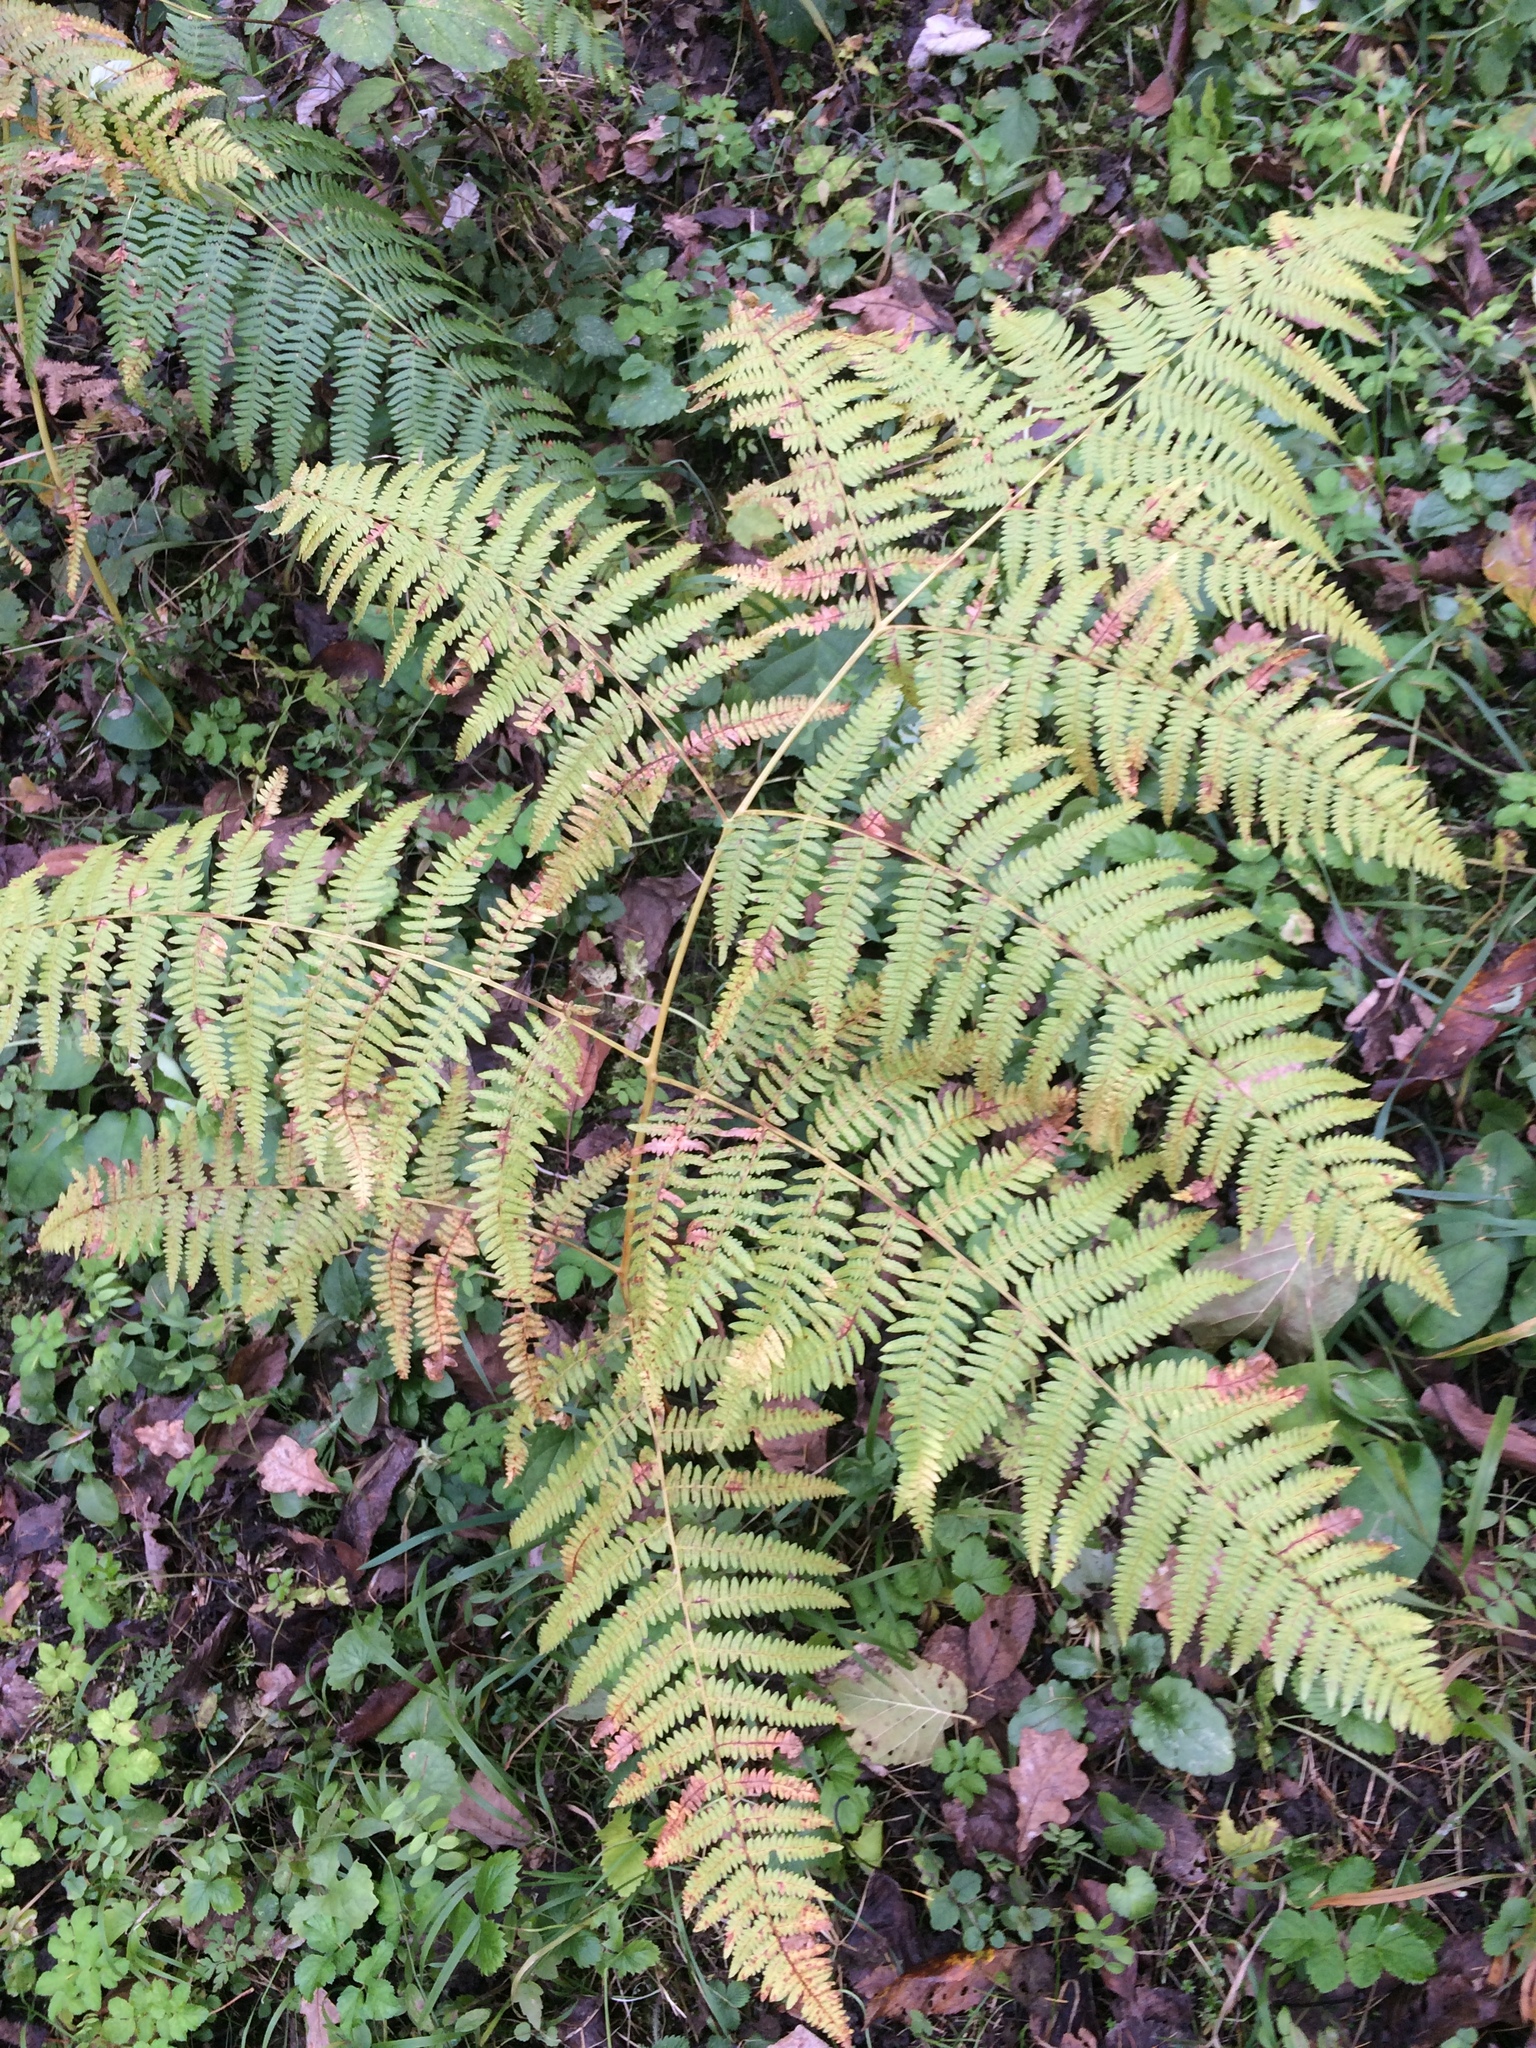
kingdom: Plantae
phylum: Tracheophyta
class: Polypodiopsida
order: Polypodiales
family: Dennstaedtiaceae
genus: Pteridium
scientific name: Pteridium aquilinum
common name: Bracken
